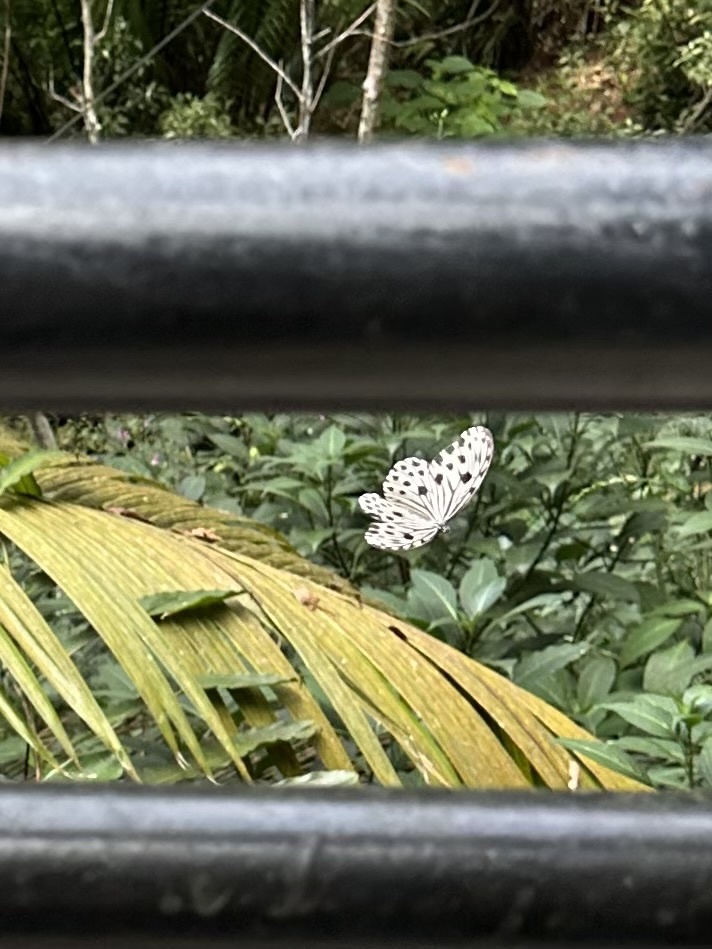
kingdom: Animalia
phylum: Arthropoda
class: Insecta
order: Lepidoptera
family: Nymphalidae
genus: Ideopsis
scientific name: Ideopsis gaura
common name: Smaller wood nymph
